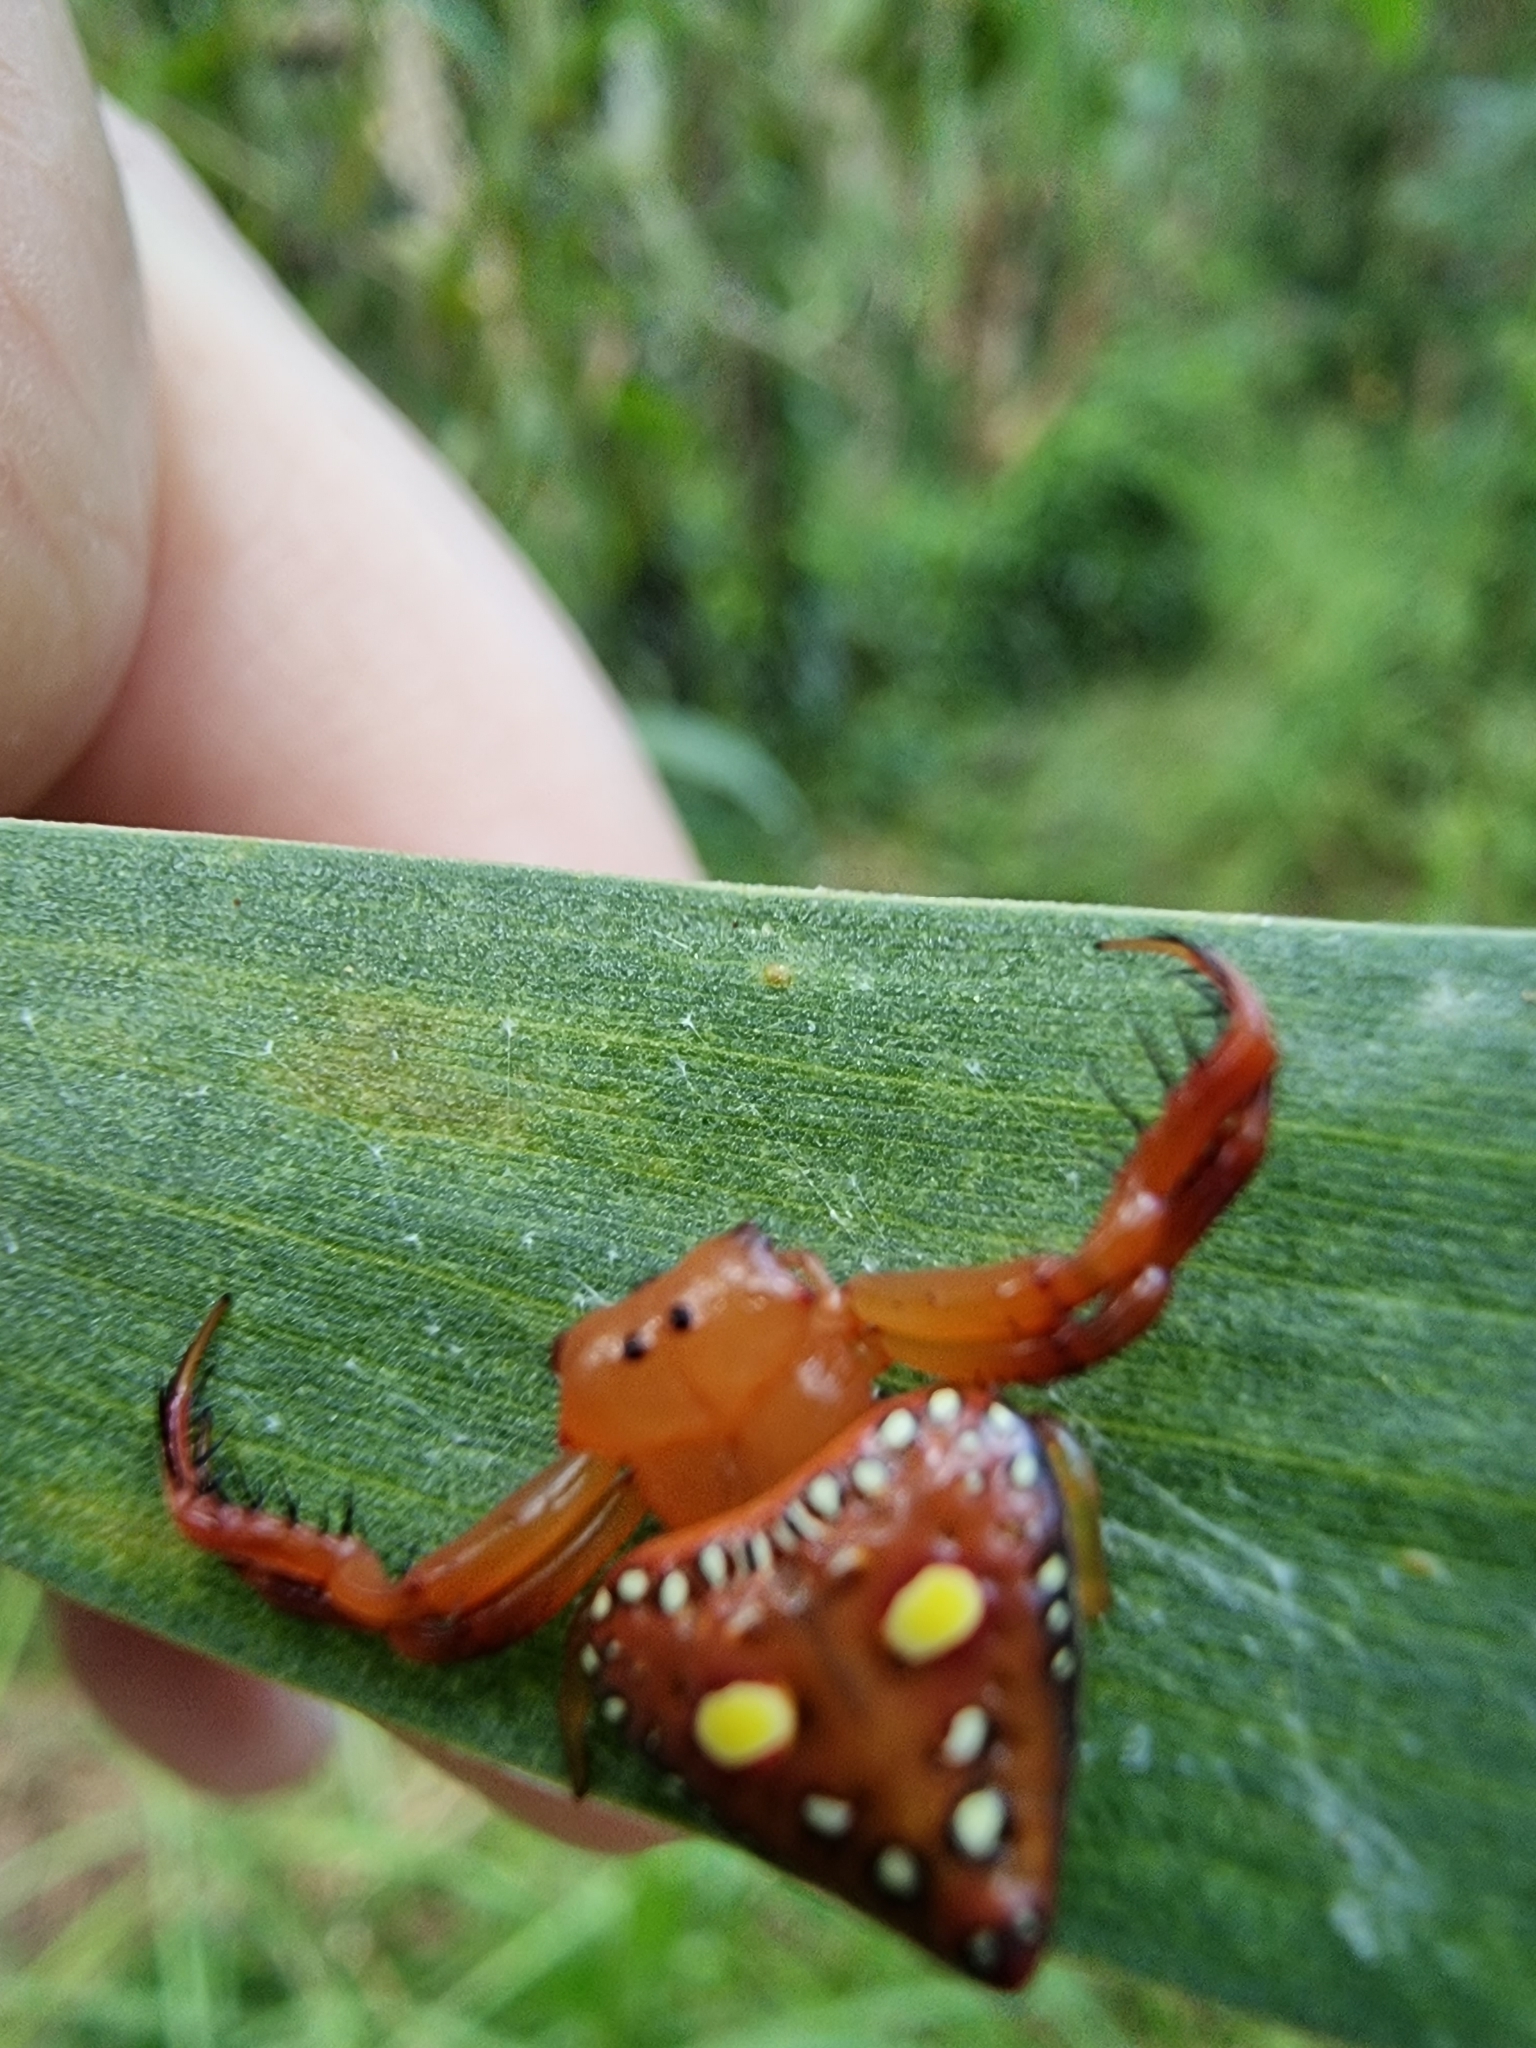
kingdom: Animalia
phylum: Arthropoda
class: Arachnida
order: Araneae
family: Arkyidae
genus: Arkys
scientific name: Arkys lancearius
